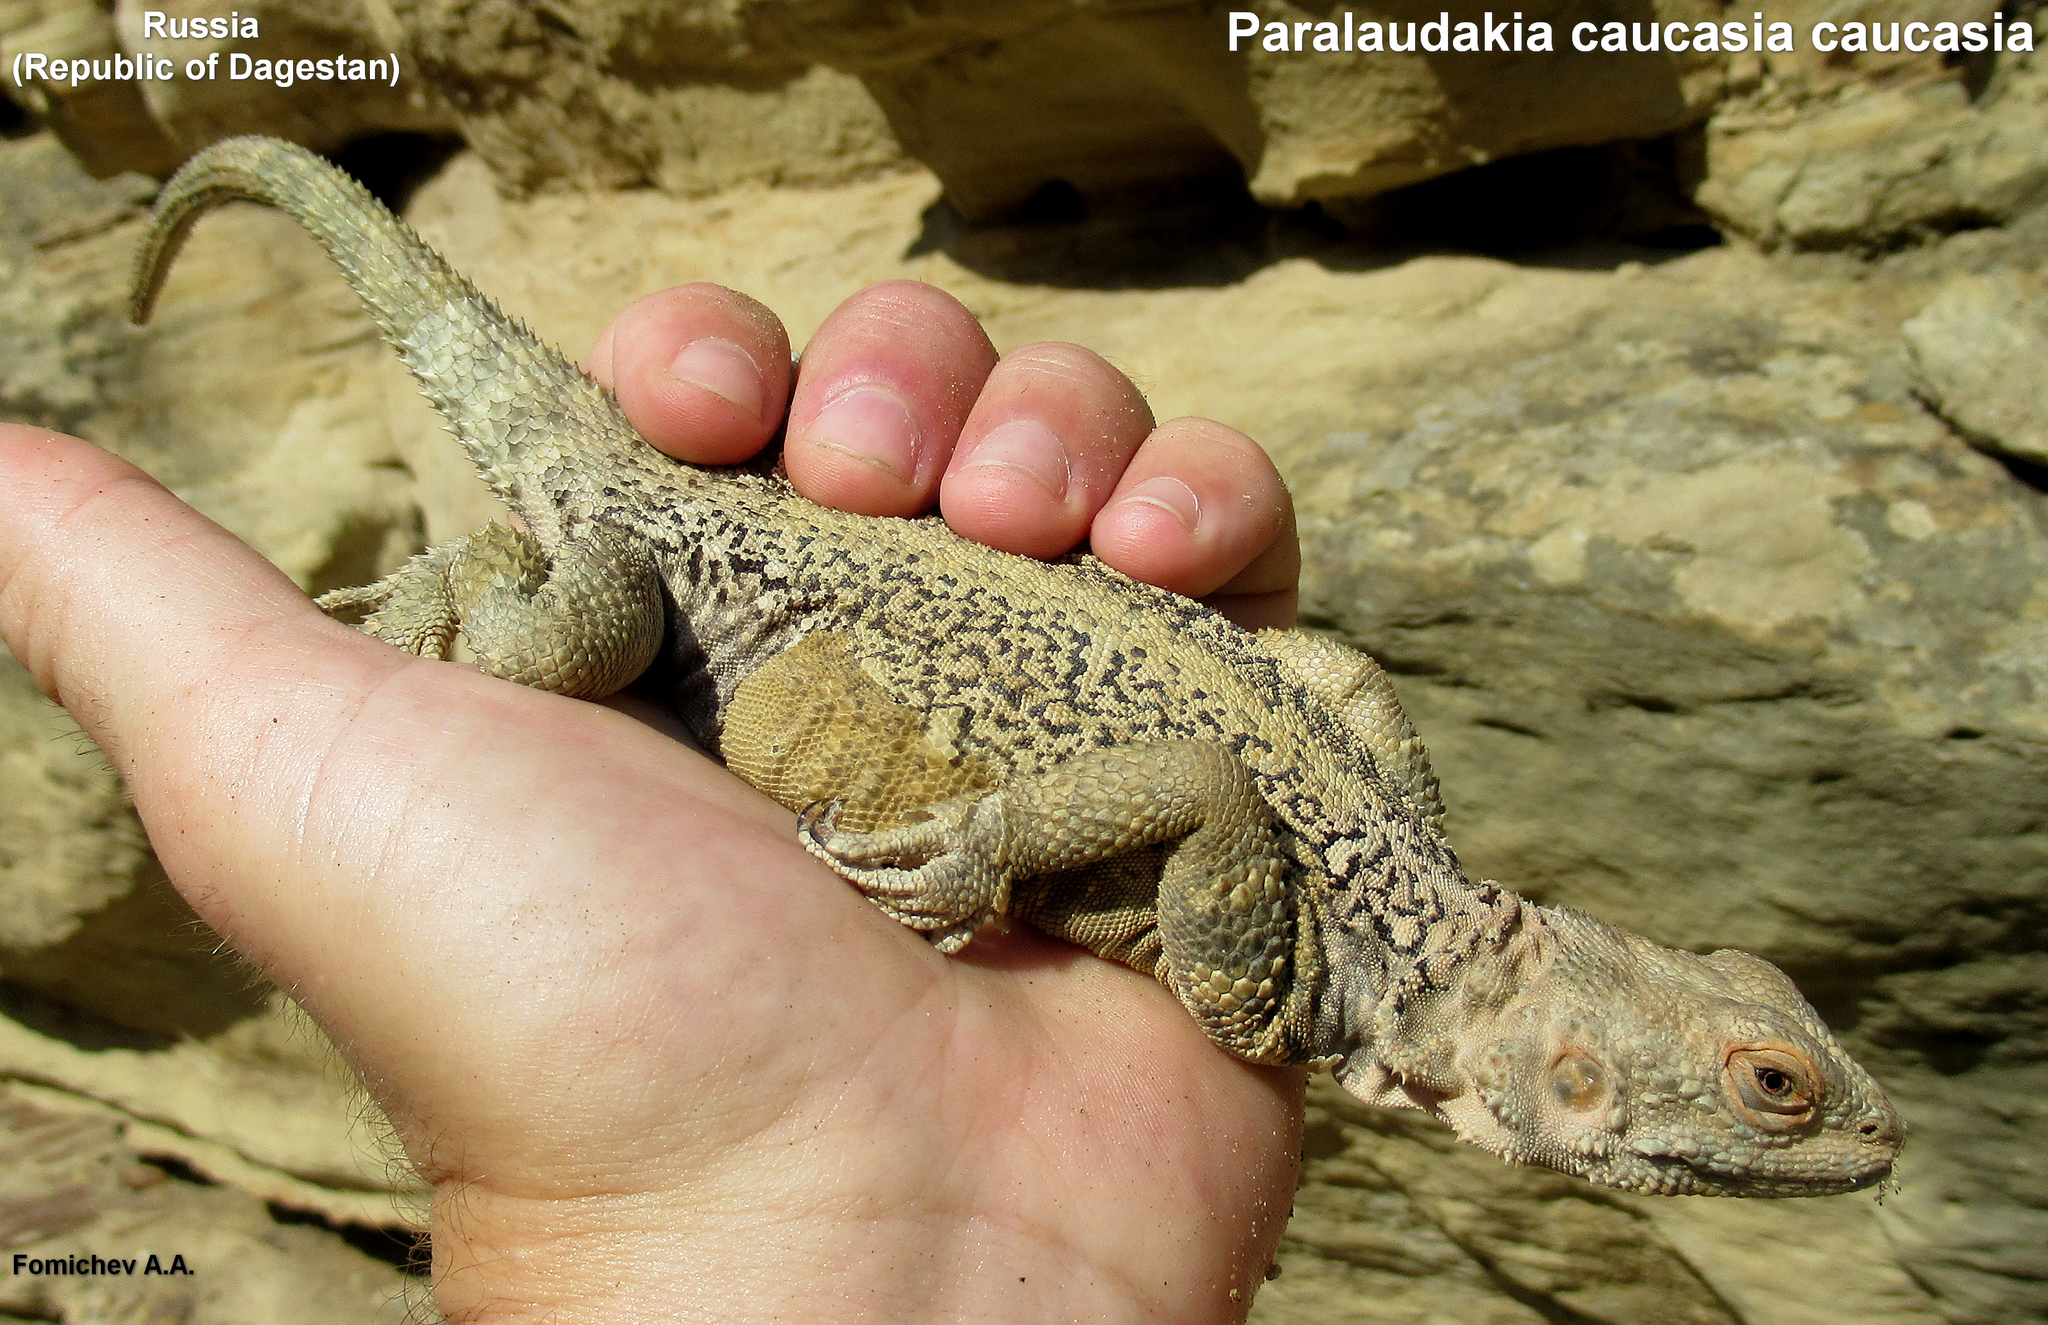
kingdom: Animalia
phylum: Chordata
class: Squamata
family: Agamidae
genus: Paralaudakia
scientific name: Paralaudakia caucasia
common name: Caucasian agama
